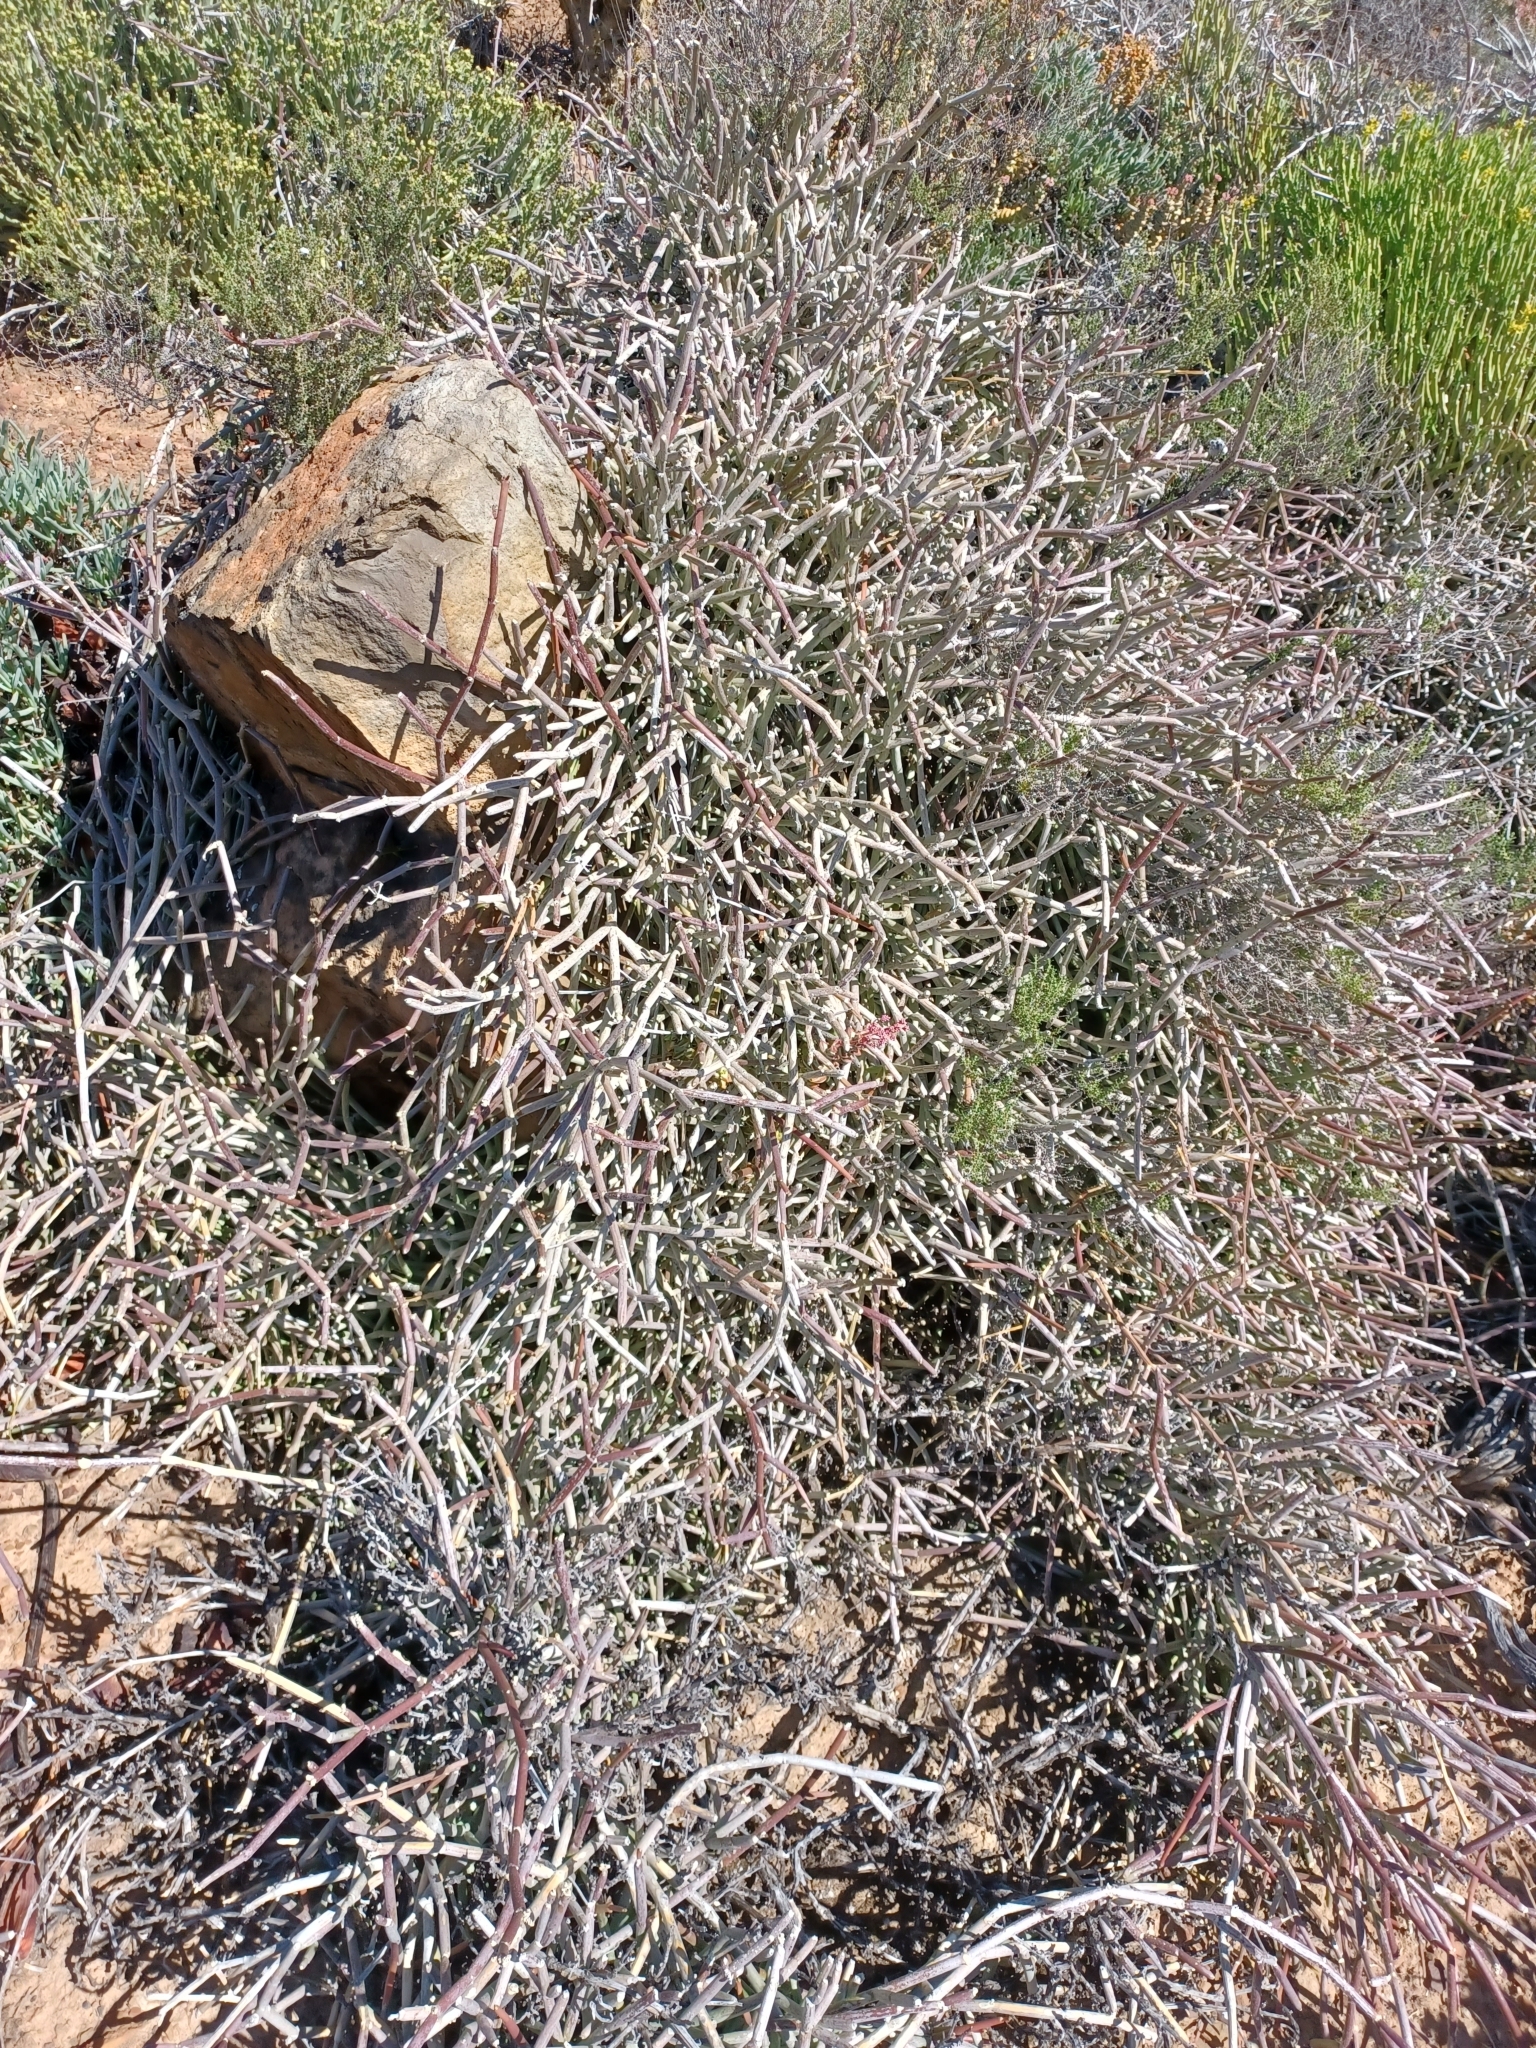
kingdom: Plantae
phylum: Tracheophyta
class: Magnoliopsida
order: Gentianales
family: Apocynaceae
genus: Cynanchum
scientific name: Cynanchum viminale
